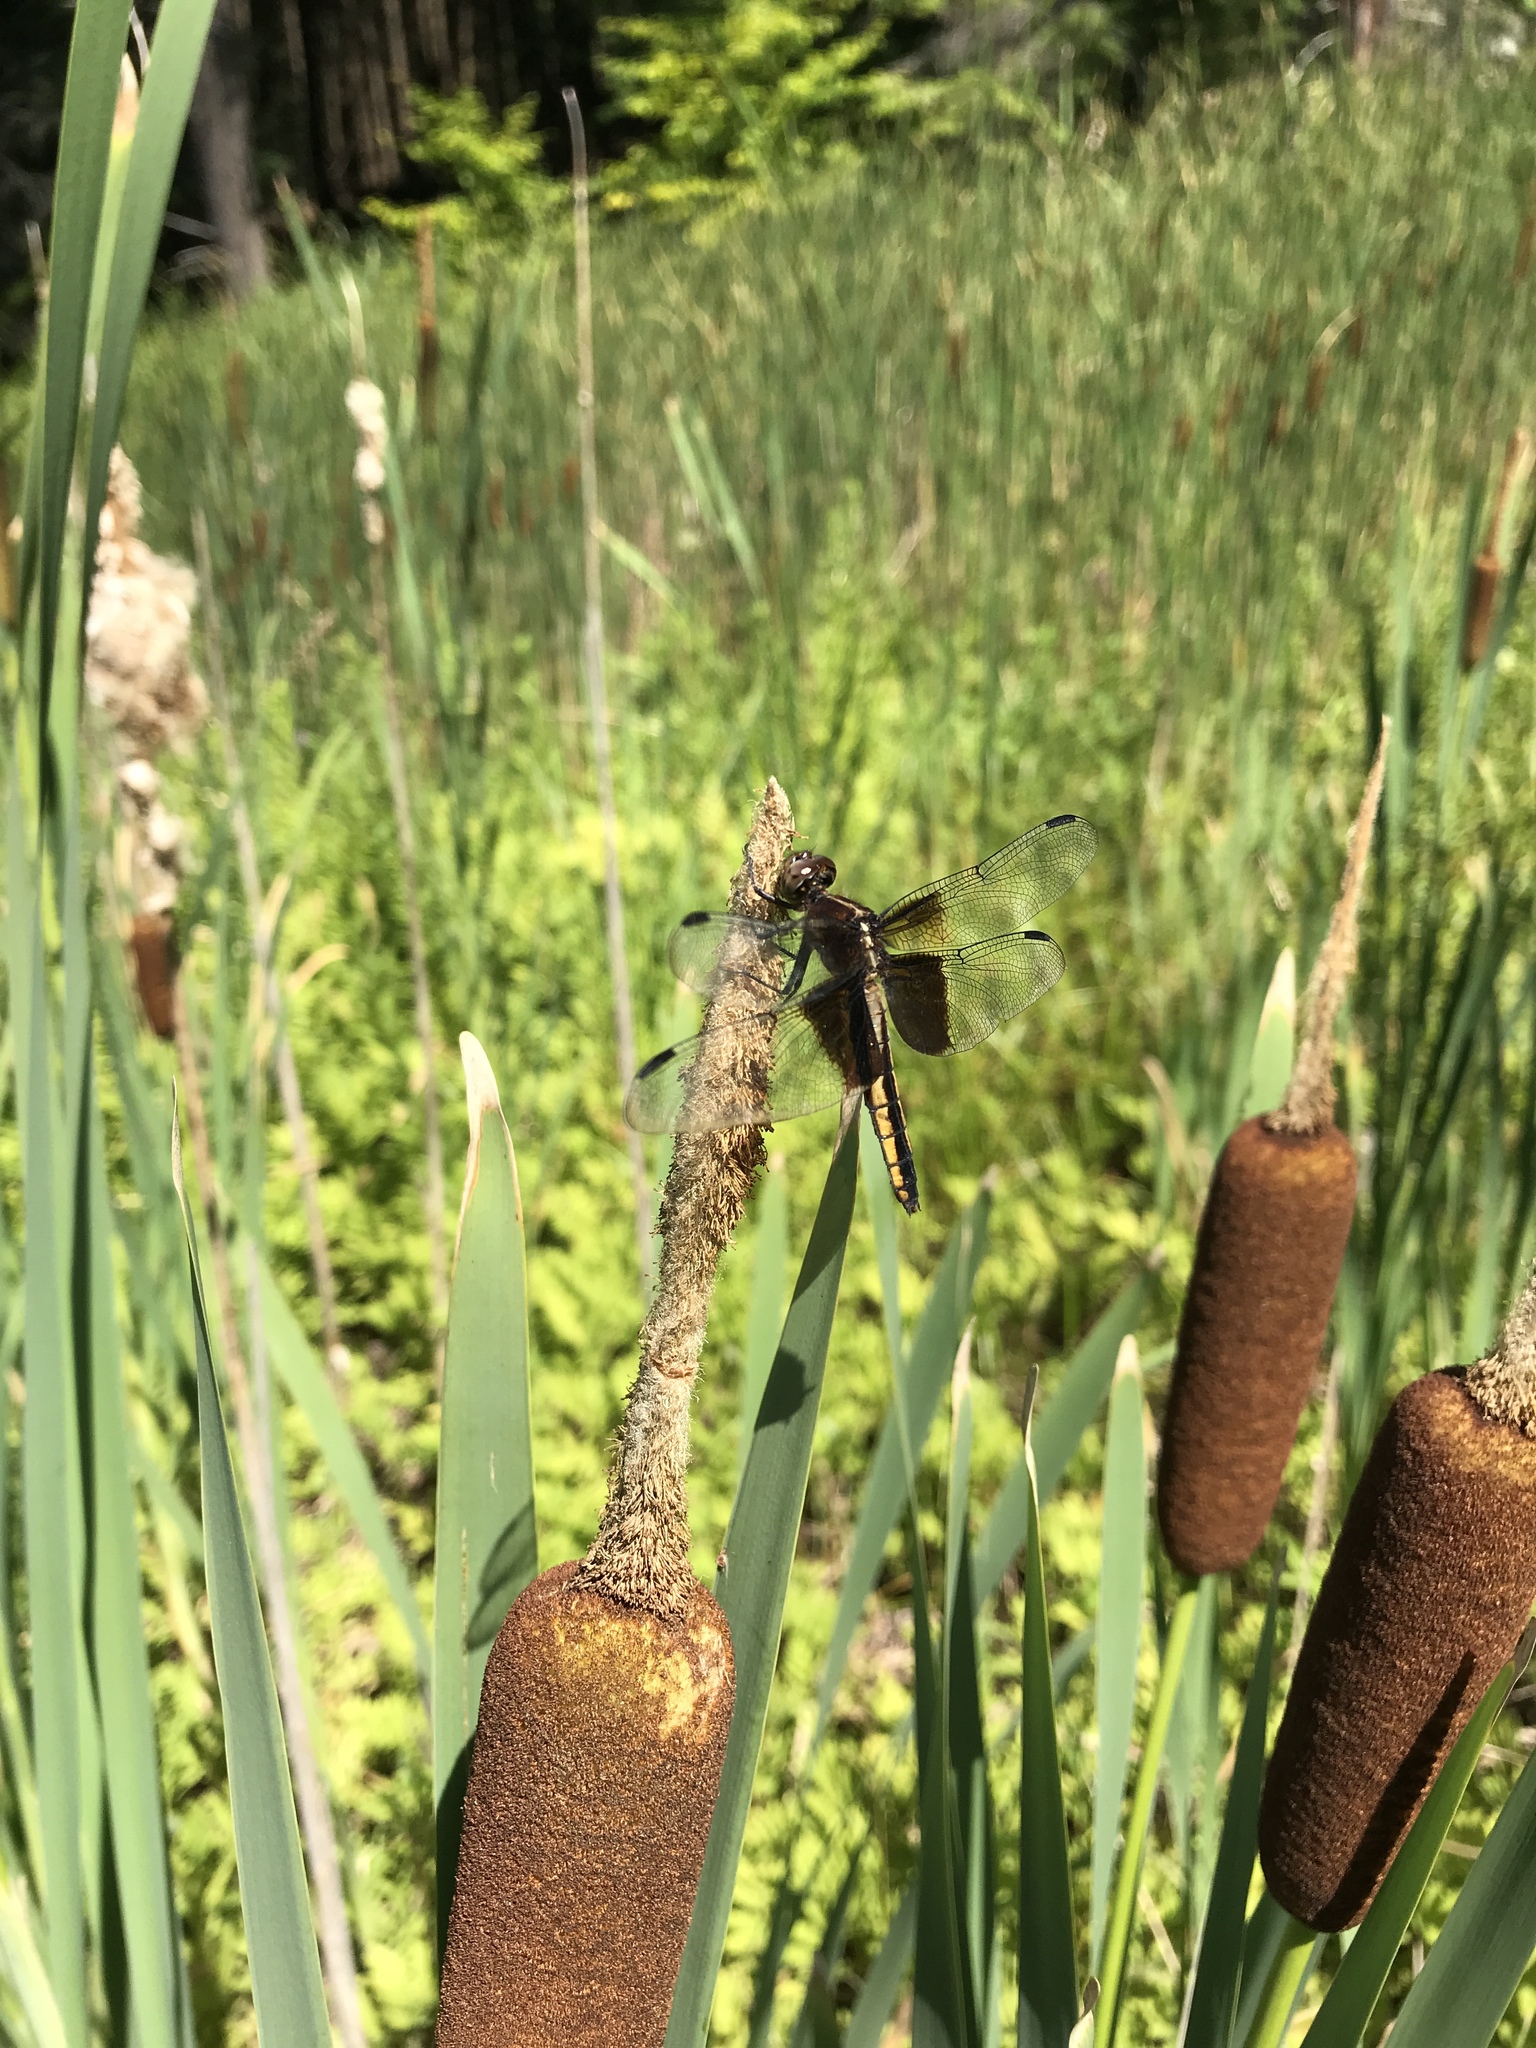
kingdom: Animalia
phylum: Arthropoda
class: Insecta
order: Odonata
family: Libellulidae
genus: Libellula
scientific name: Libellula luctuosa
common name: Widow skimmer
